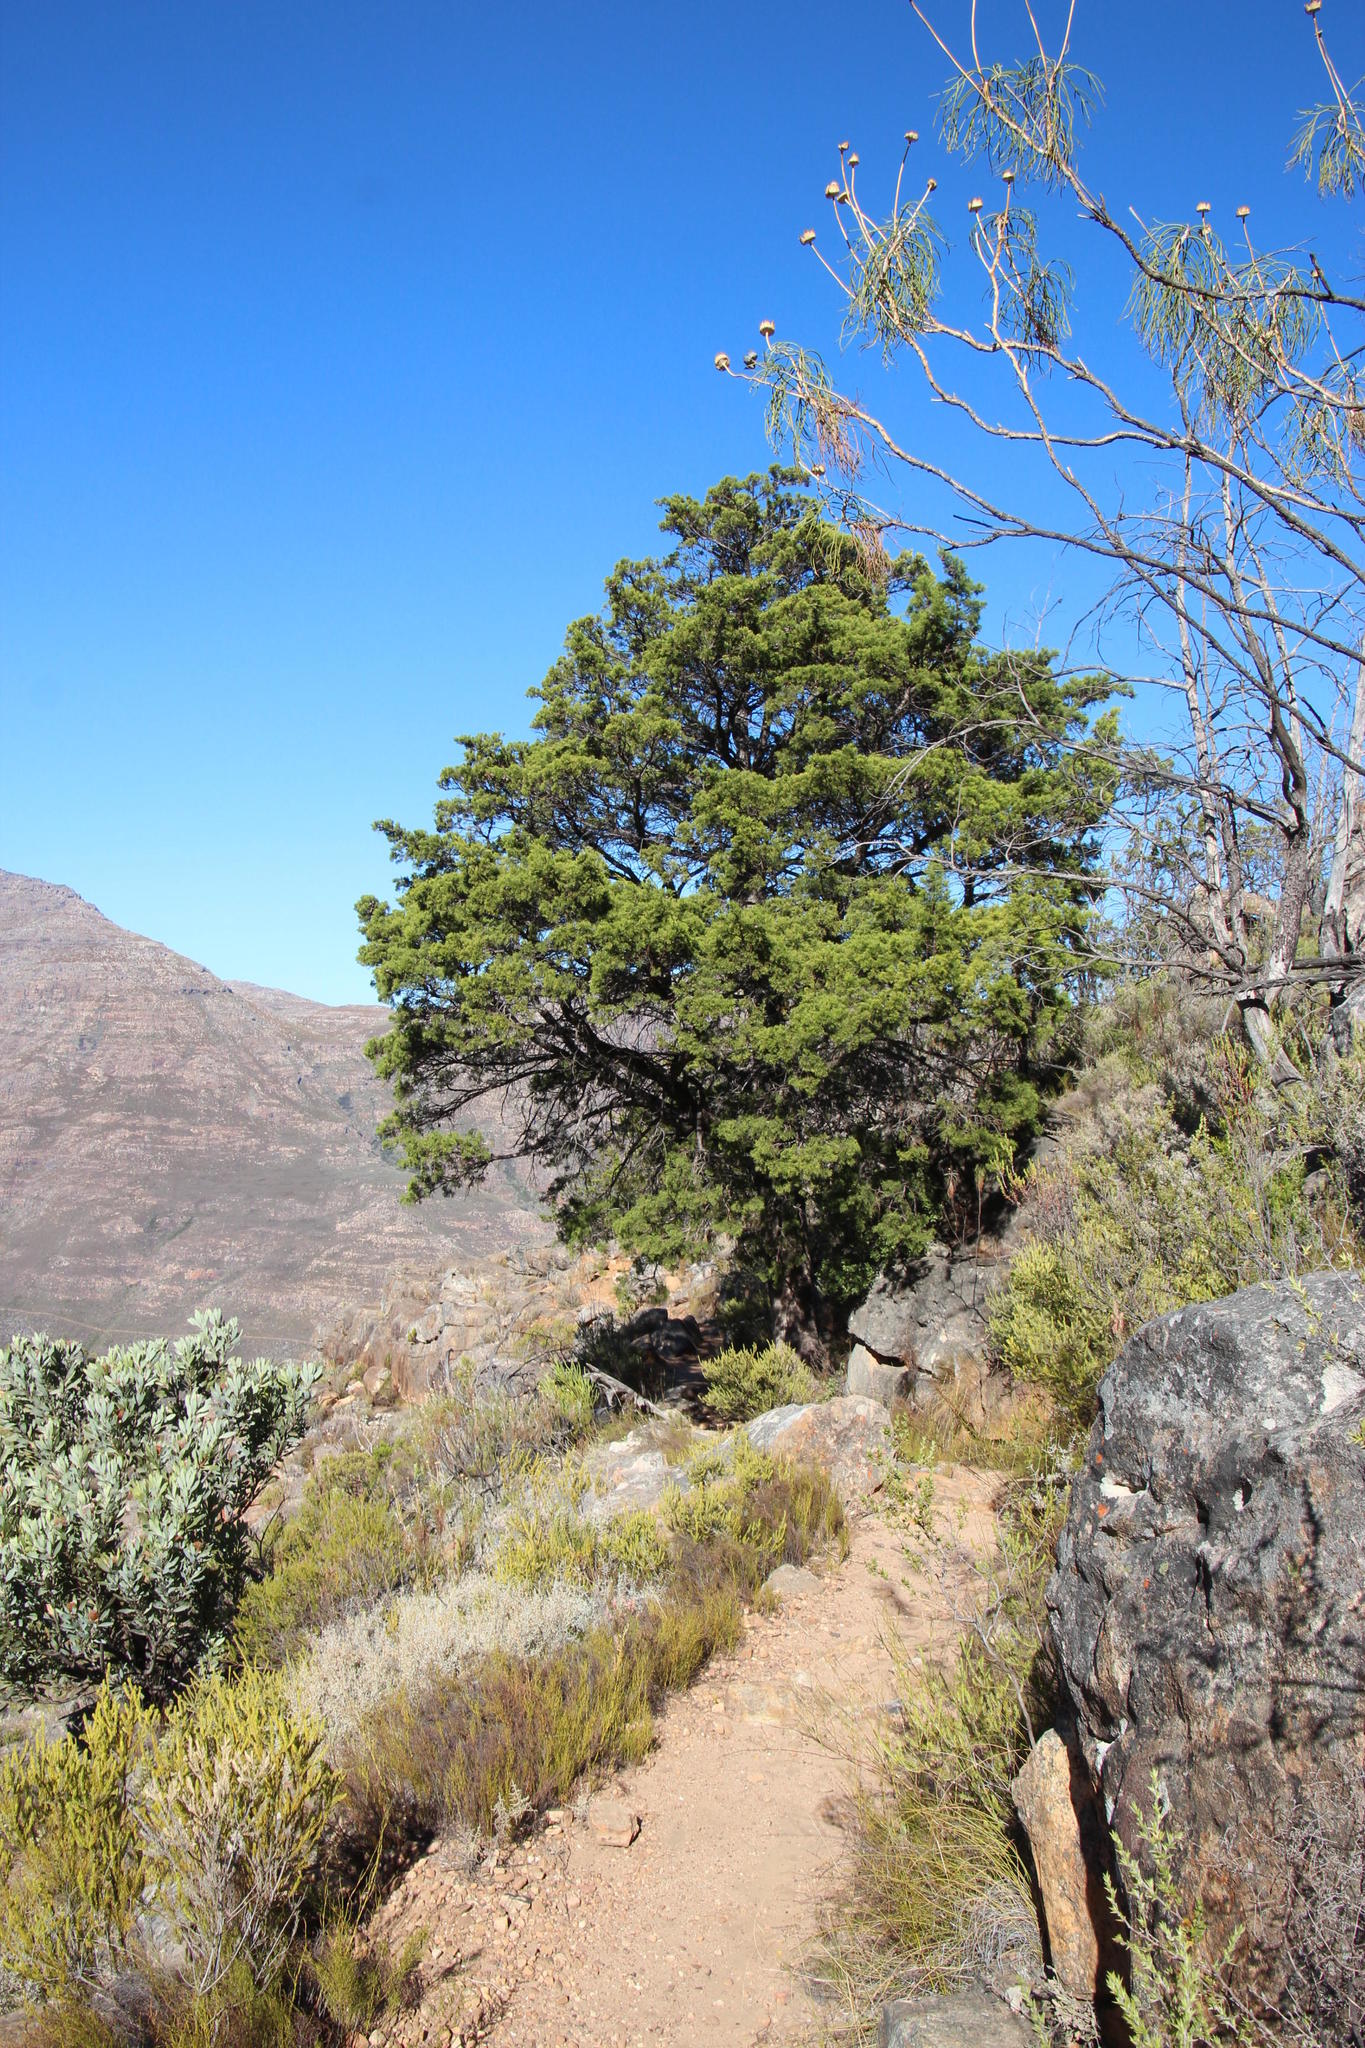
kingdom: Plantae
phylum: Tracheophyta
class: Pinopsida
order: Pinales
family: Cupressaceae
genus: Widdringtonia
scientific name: Widdringtonia nodiflora
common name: Cape cypress
